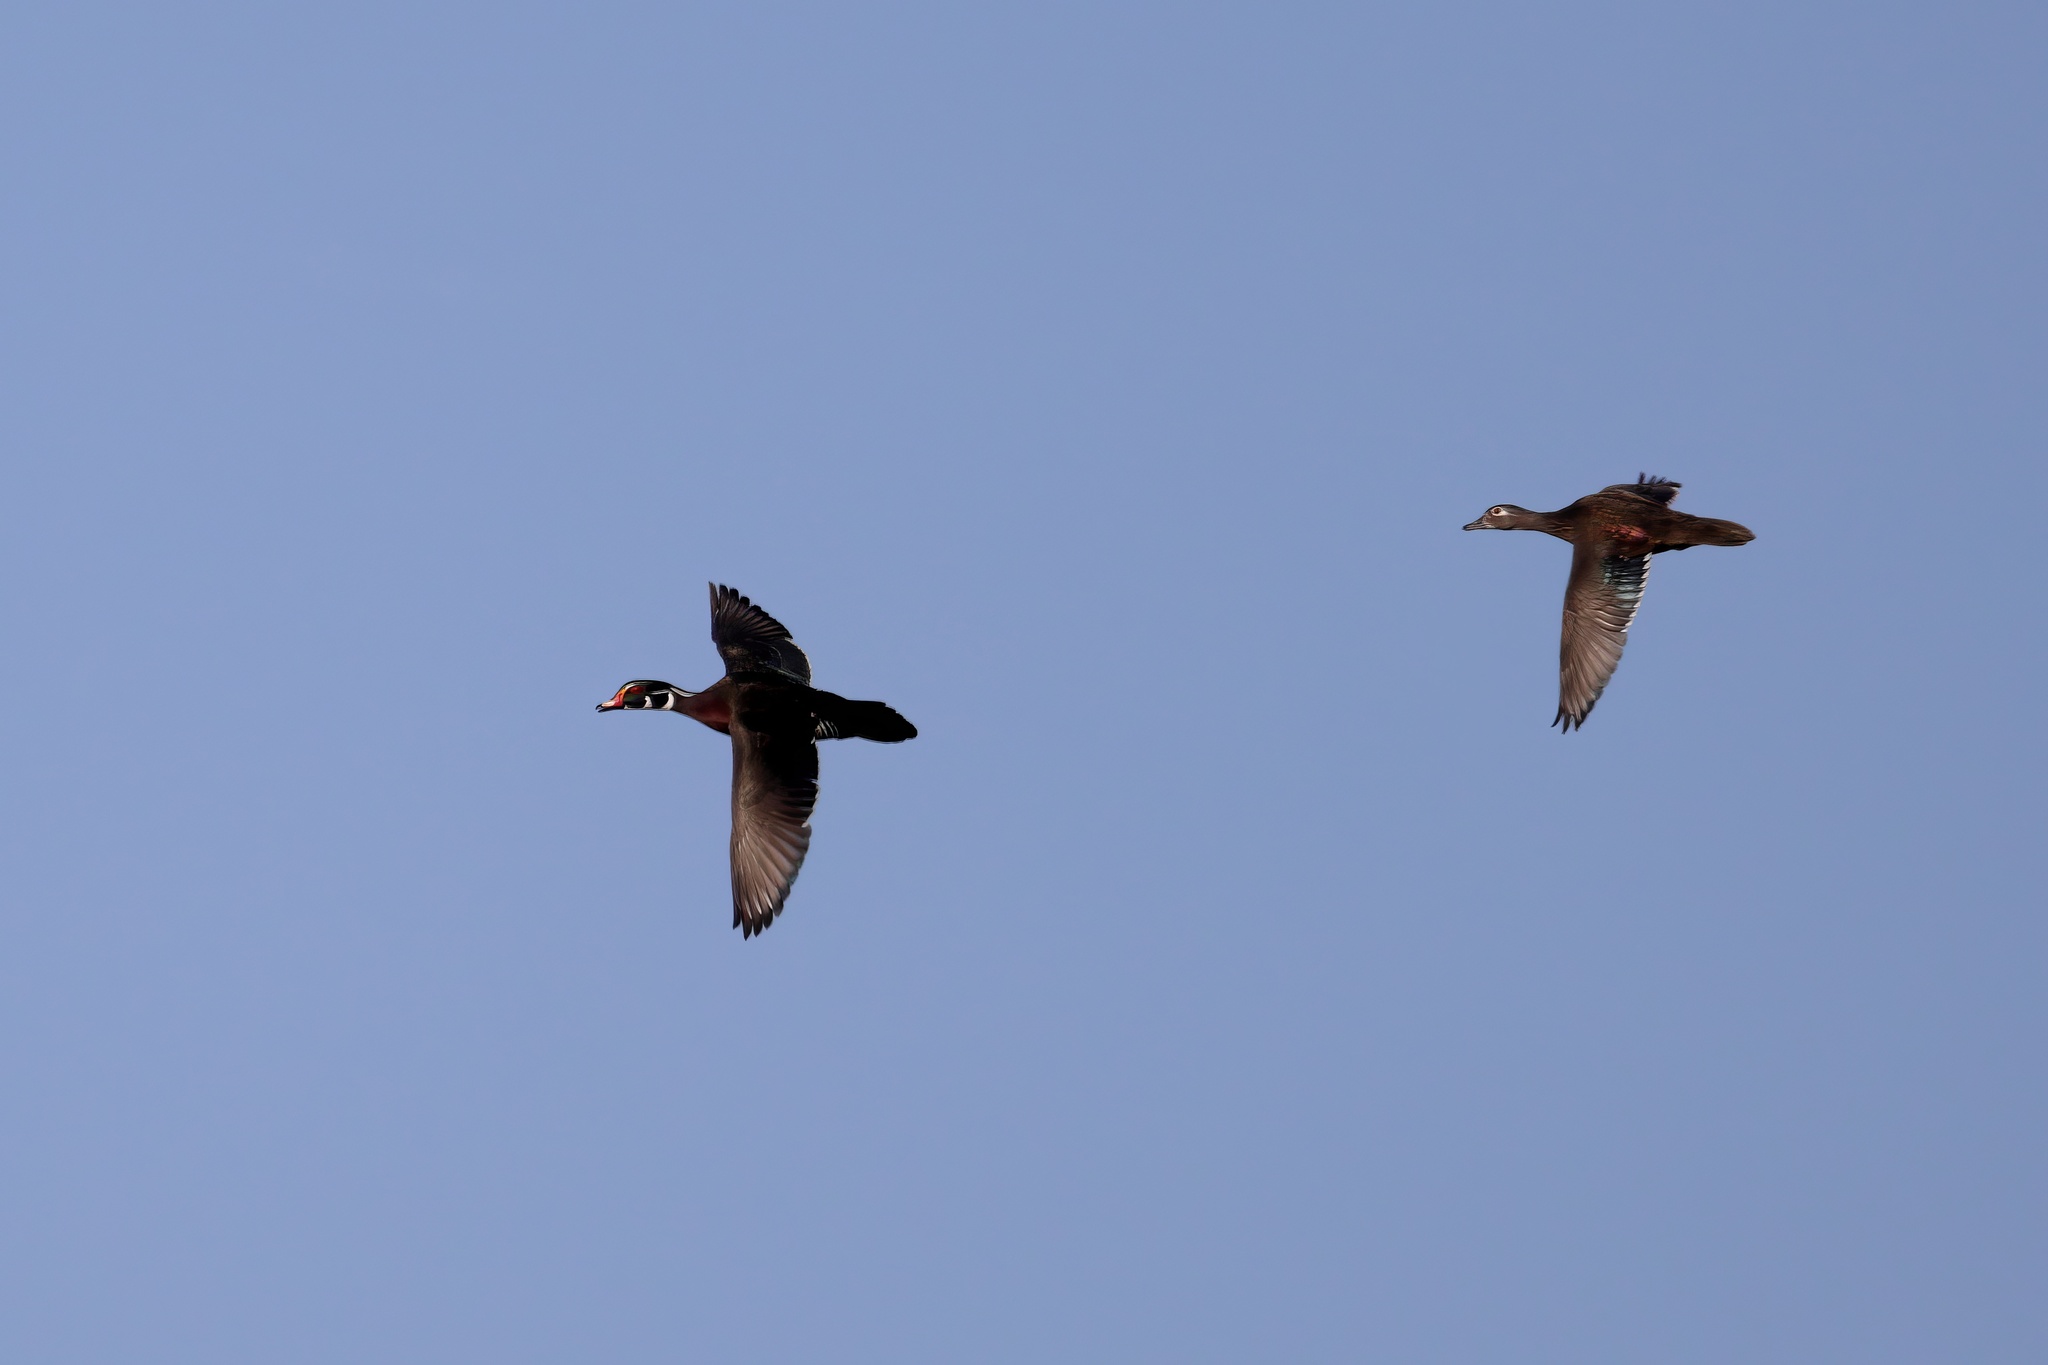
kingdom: Animalia
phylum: Chordata
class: Aves
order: Anseriformes
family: Anatidae
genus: Aix
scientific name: Aix sponsa
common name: Wood duck
